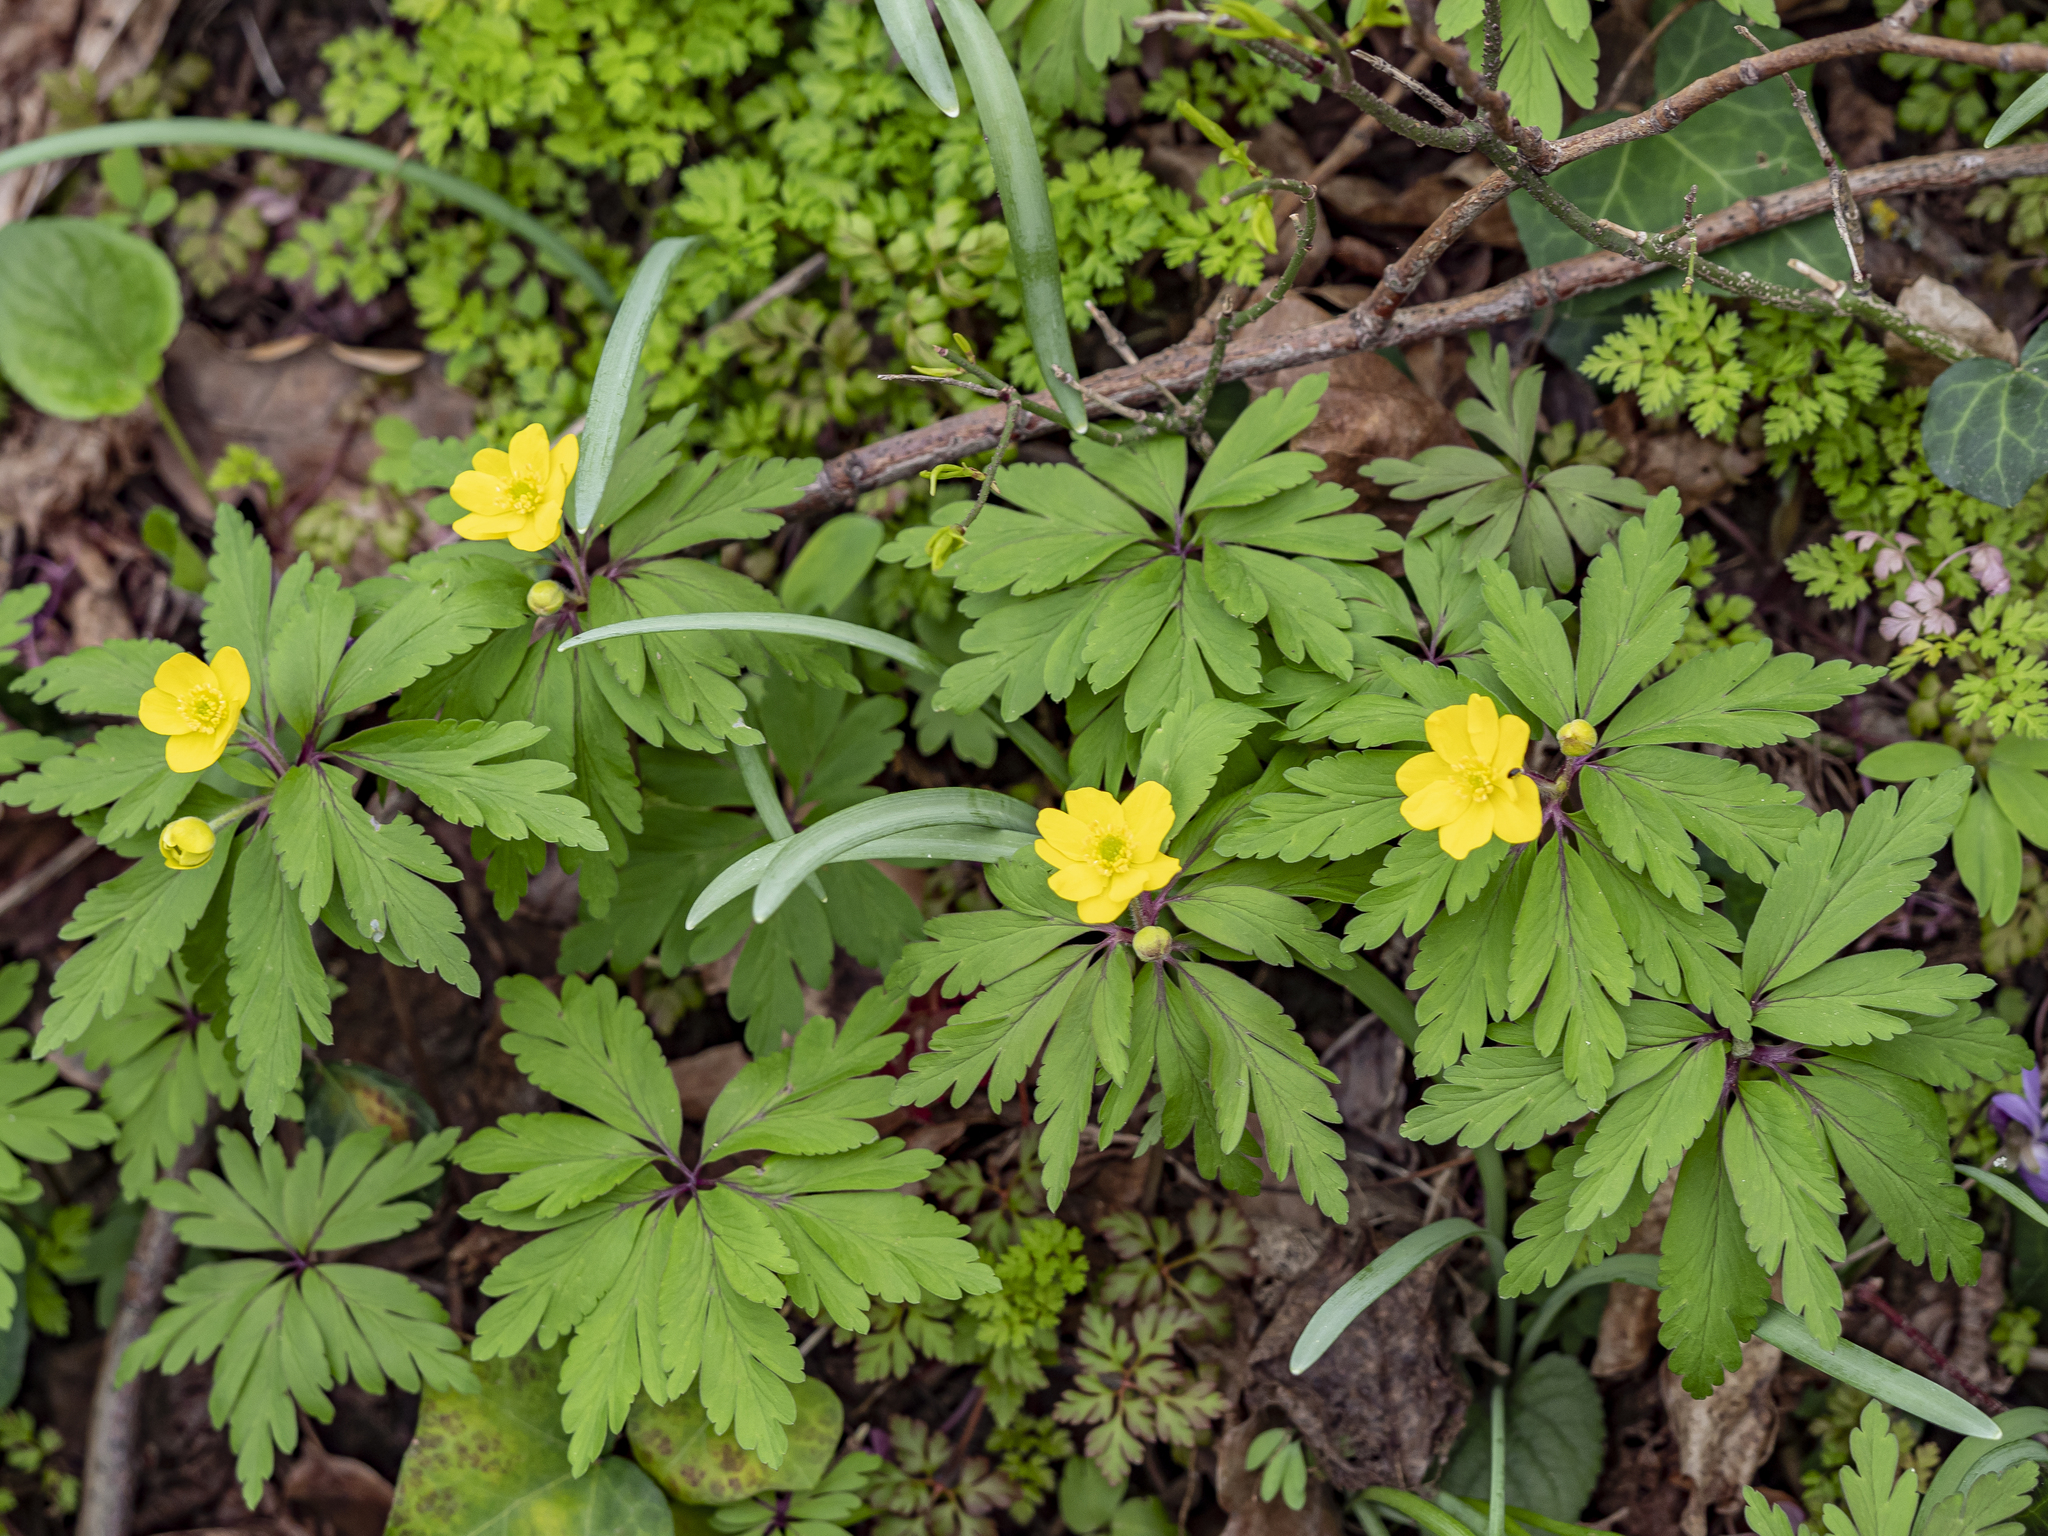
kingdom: Plantae
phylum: Tracheophyta
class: Magnoliopsida
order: Ranunculales
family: Ranunculaceae
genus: Anemone
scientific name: Anemone ranunculoides
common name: Yellow anemone
